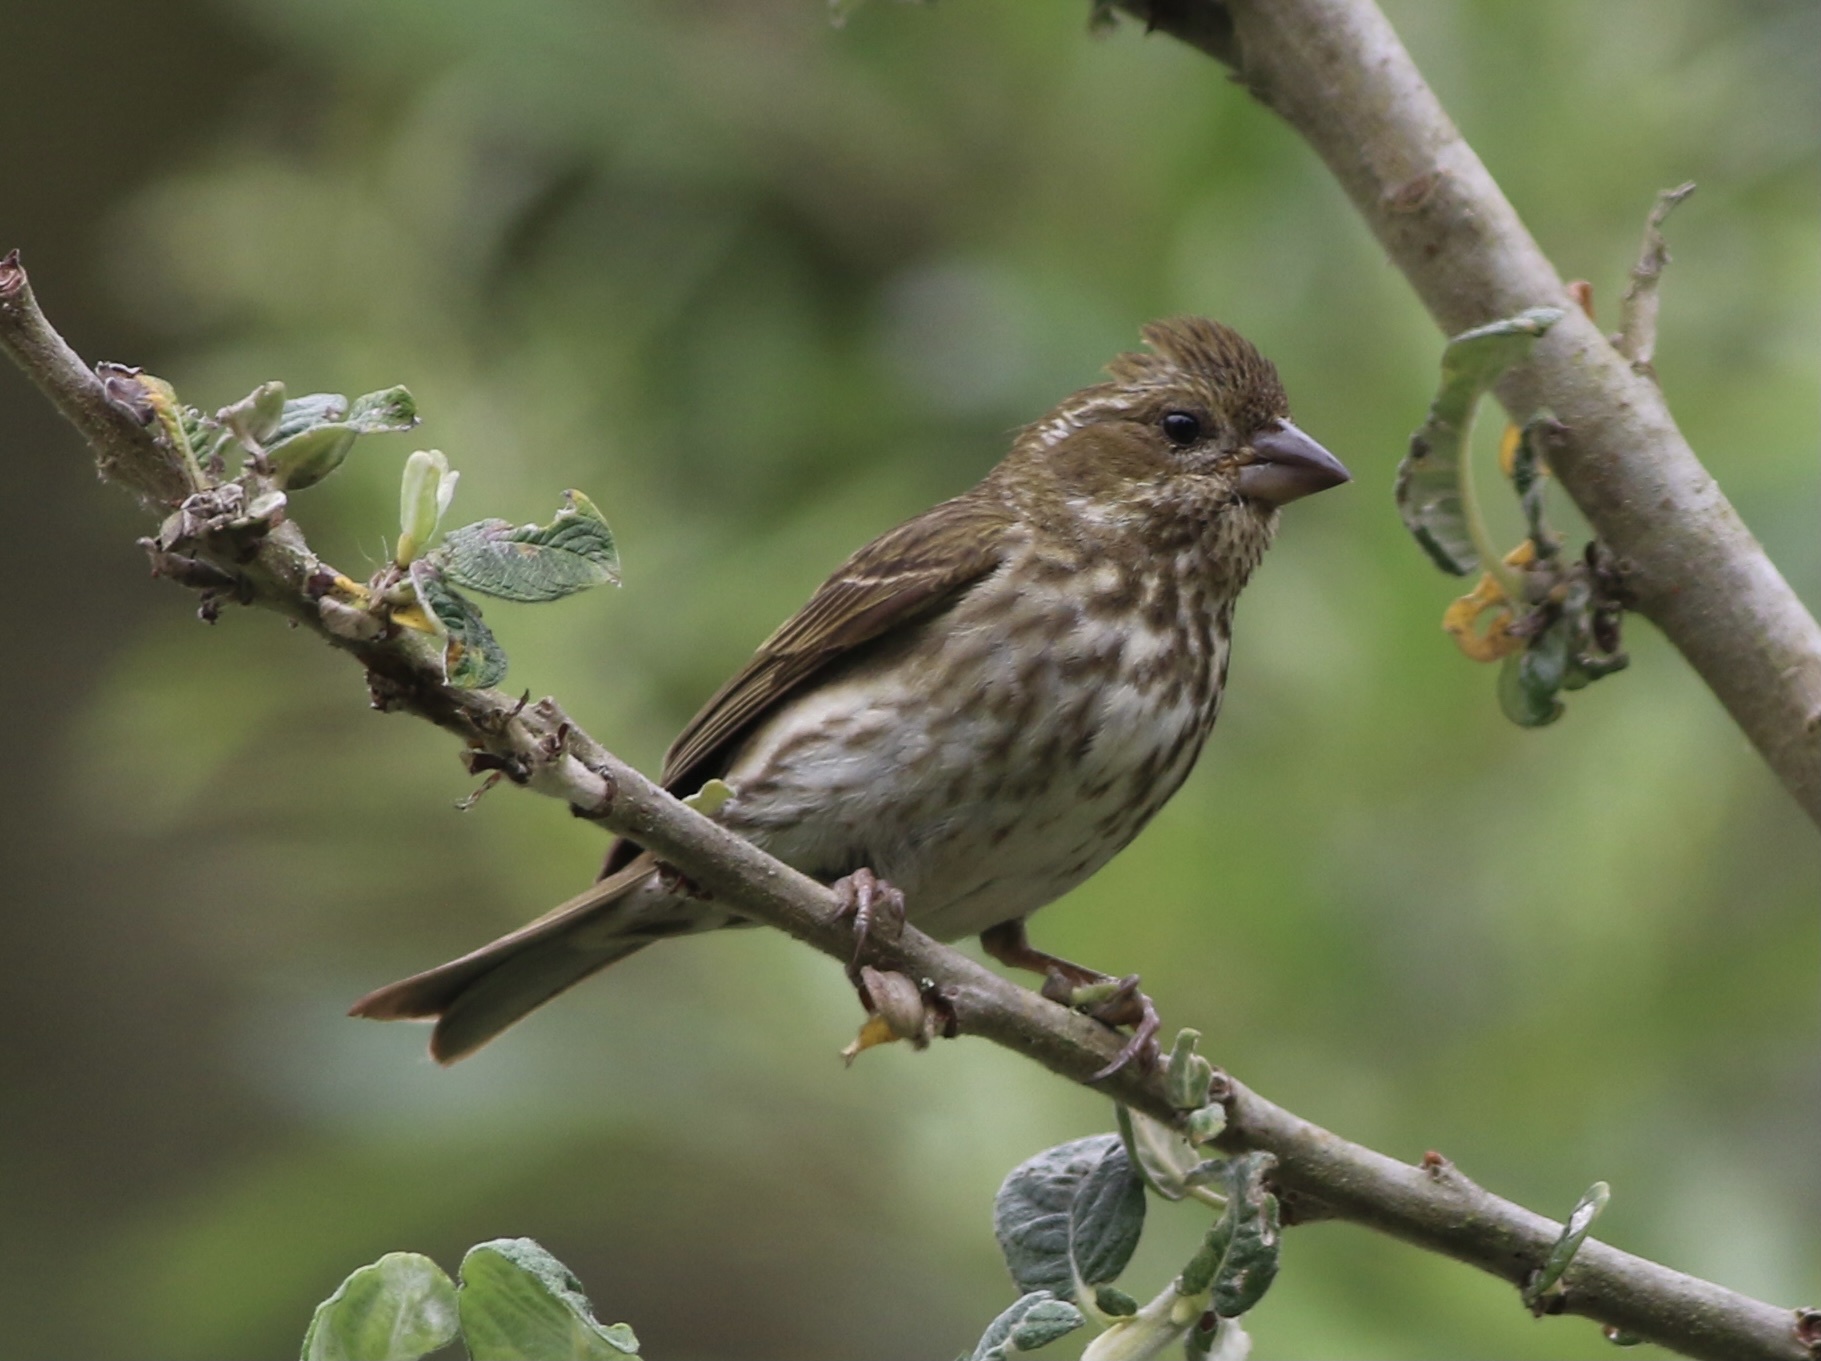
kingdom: Animalia
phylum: Chordata
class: Aves
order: Passeriformes
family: Fringillidae
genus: Haemorhous
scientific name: Haemorhous purpureus
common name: Purple finch
